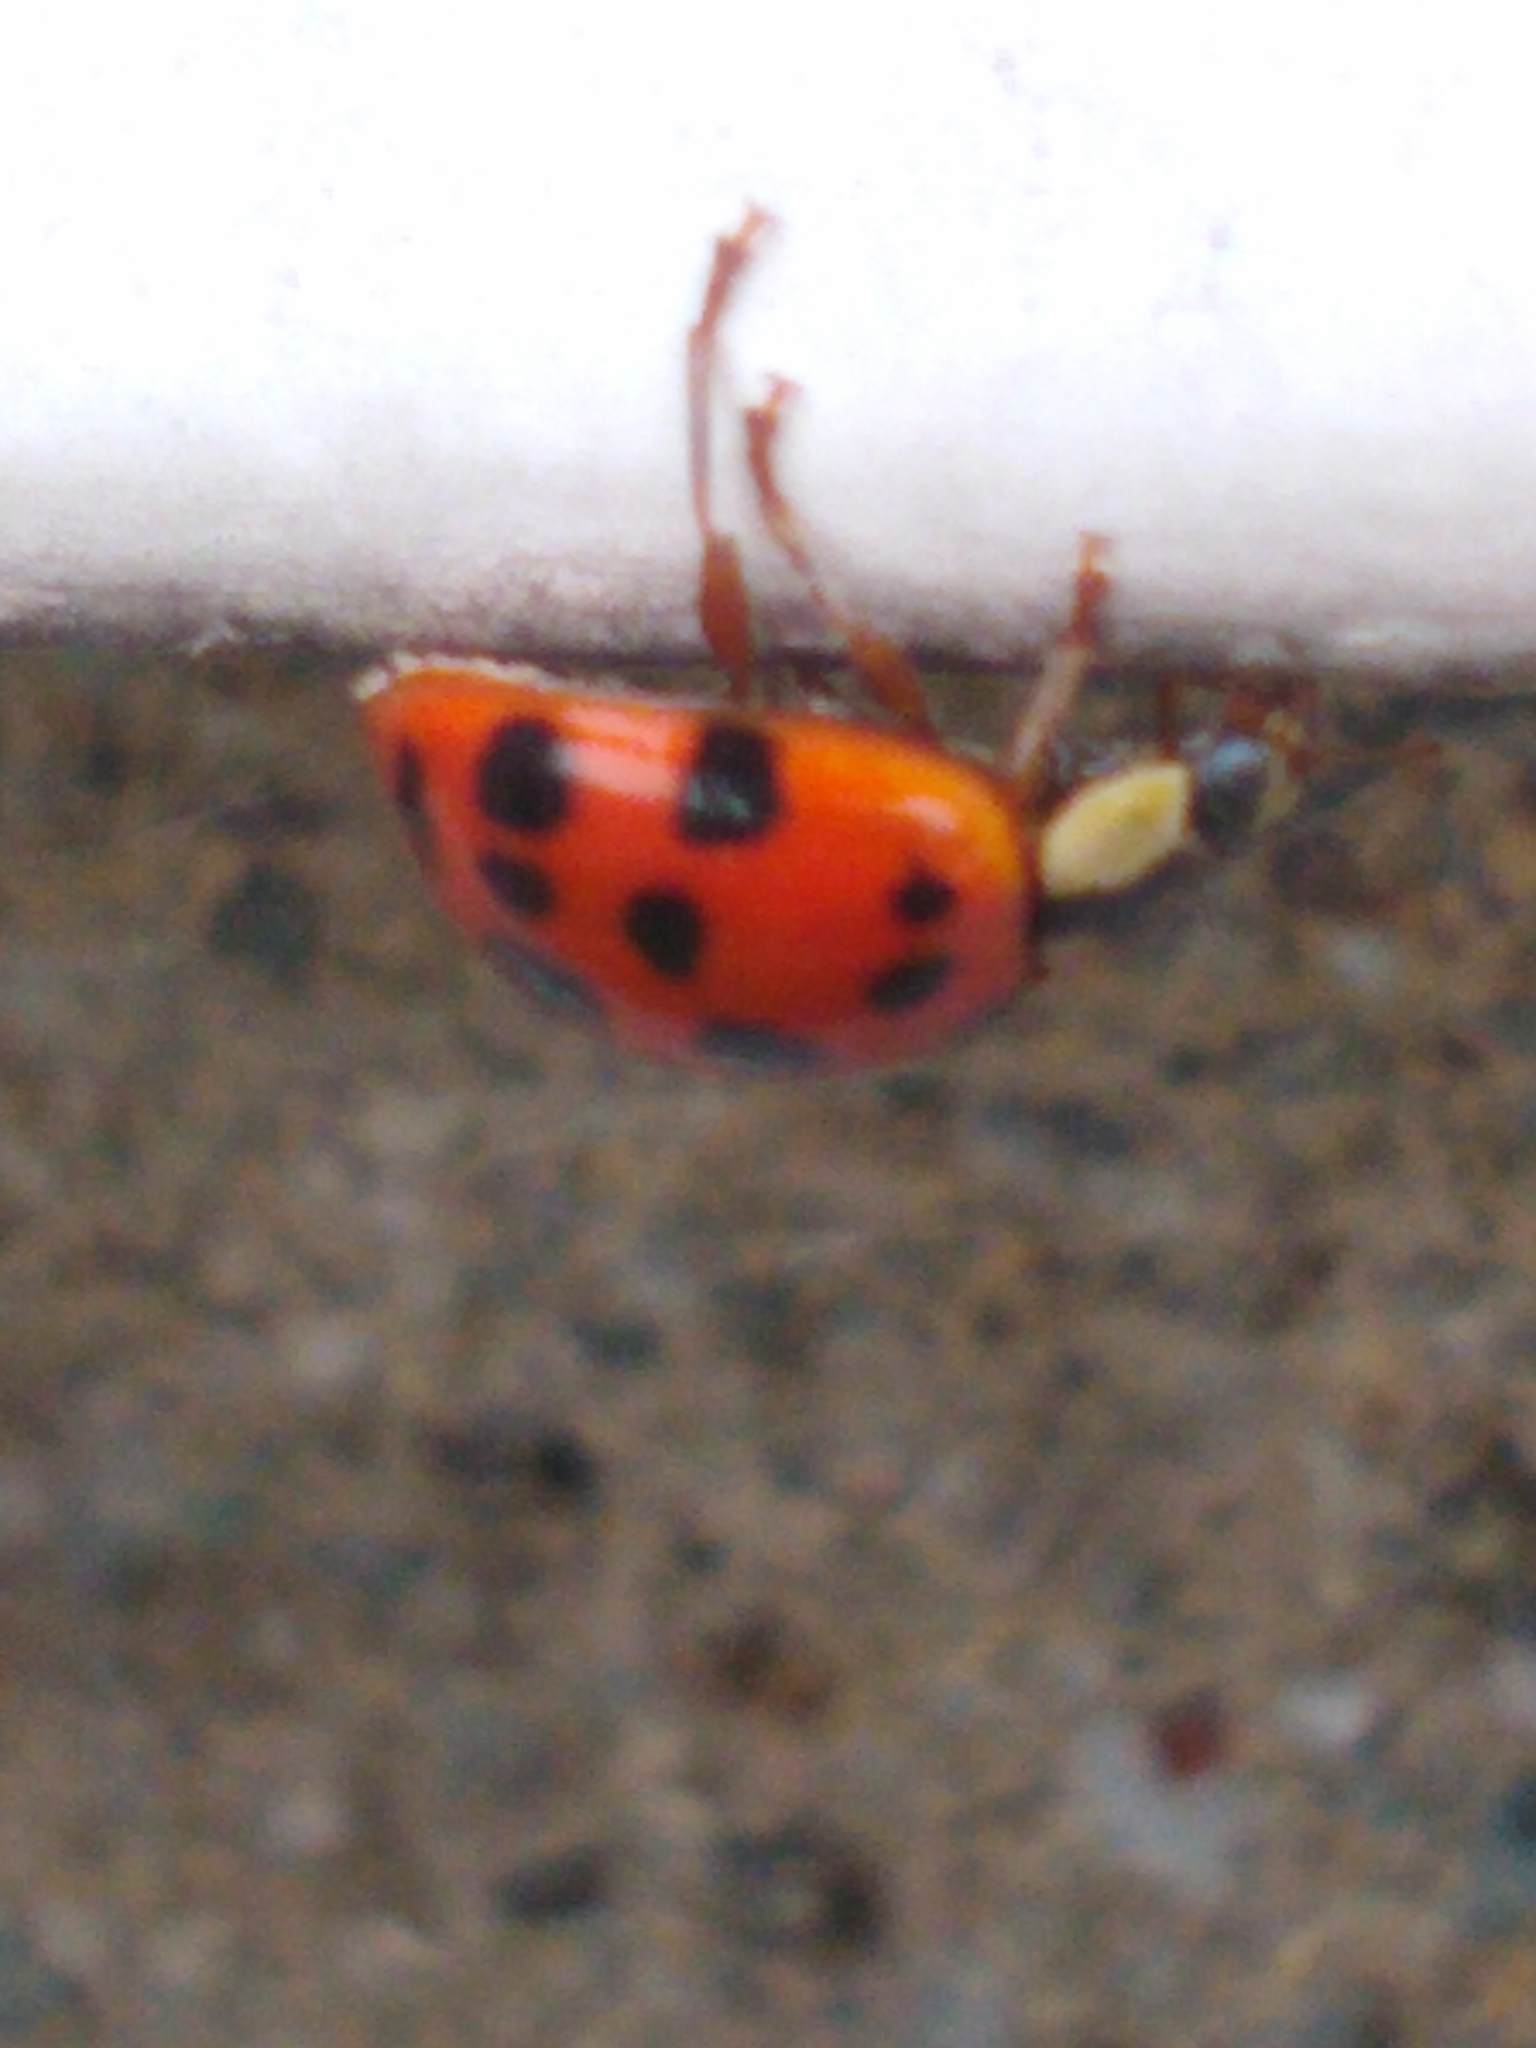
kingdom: Animalia
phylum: Arthropoda
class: Insecta
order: Coleoptera
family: Coccinellidae
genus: Harmonia
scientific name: Harmonia axyridis
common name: Harlequin ladybird
